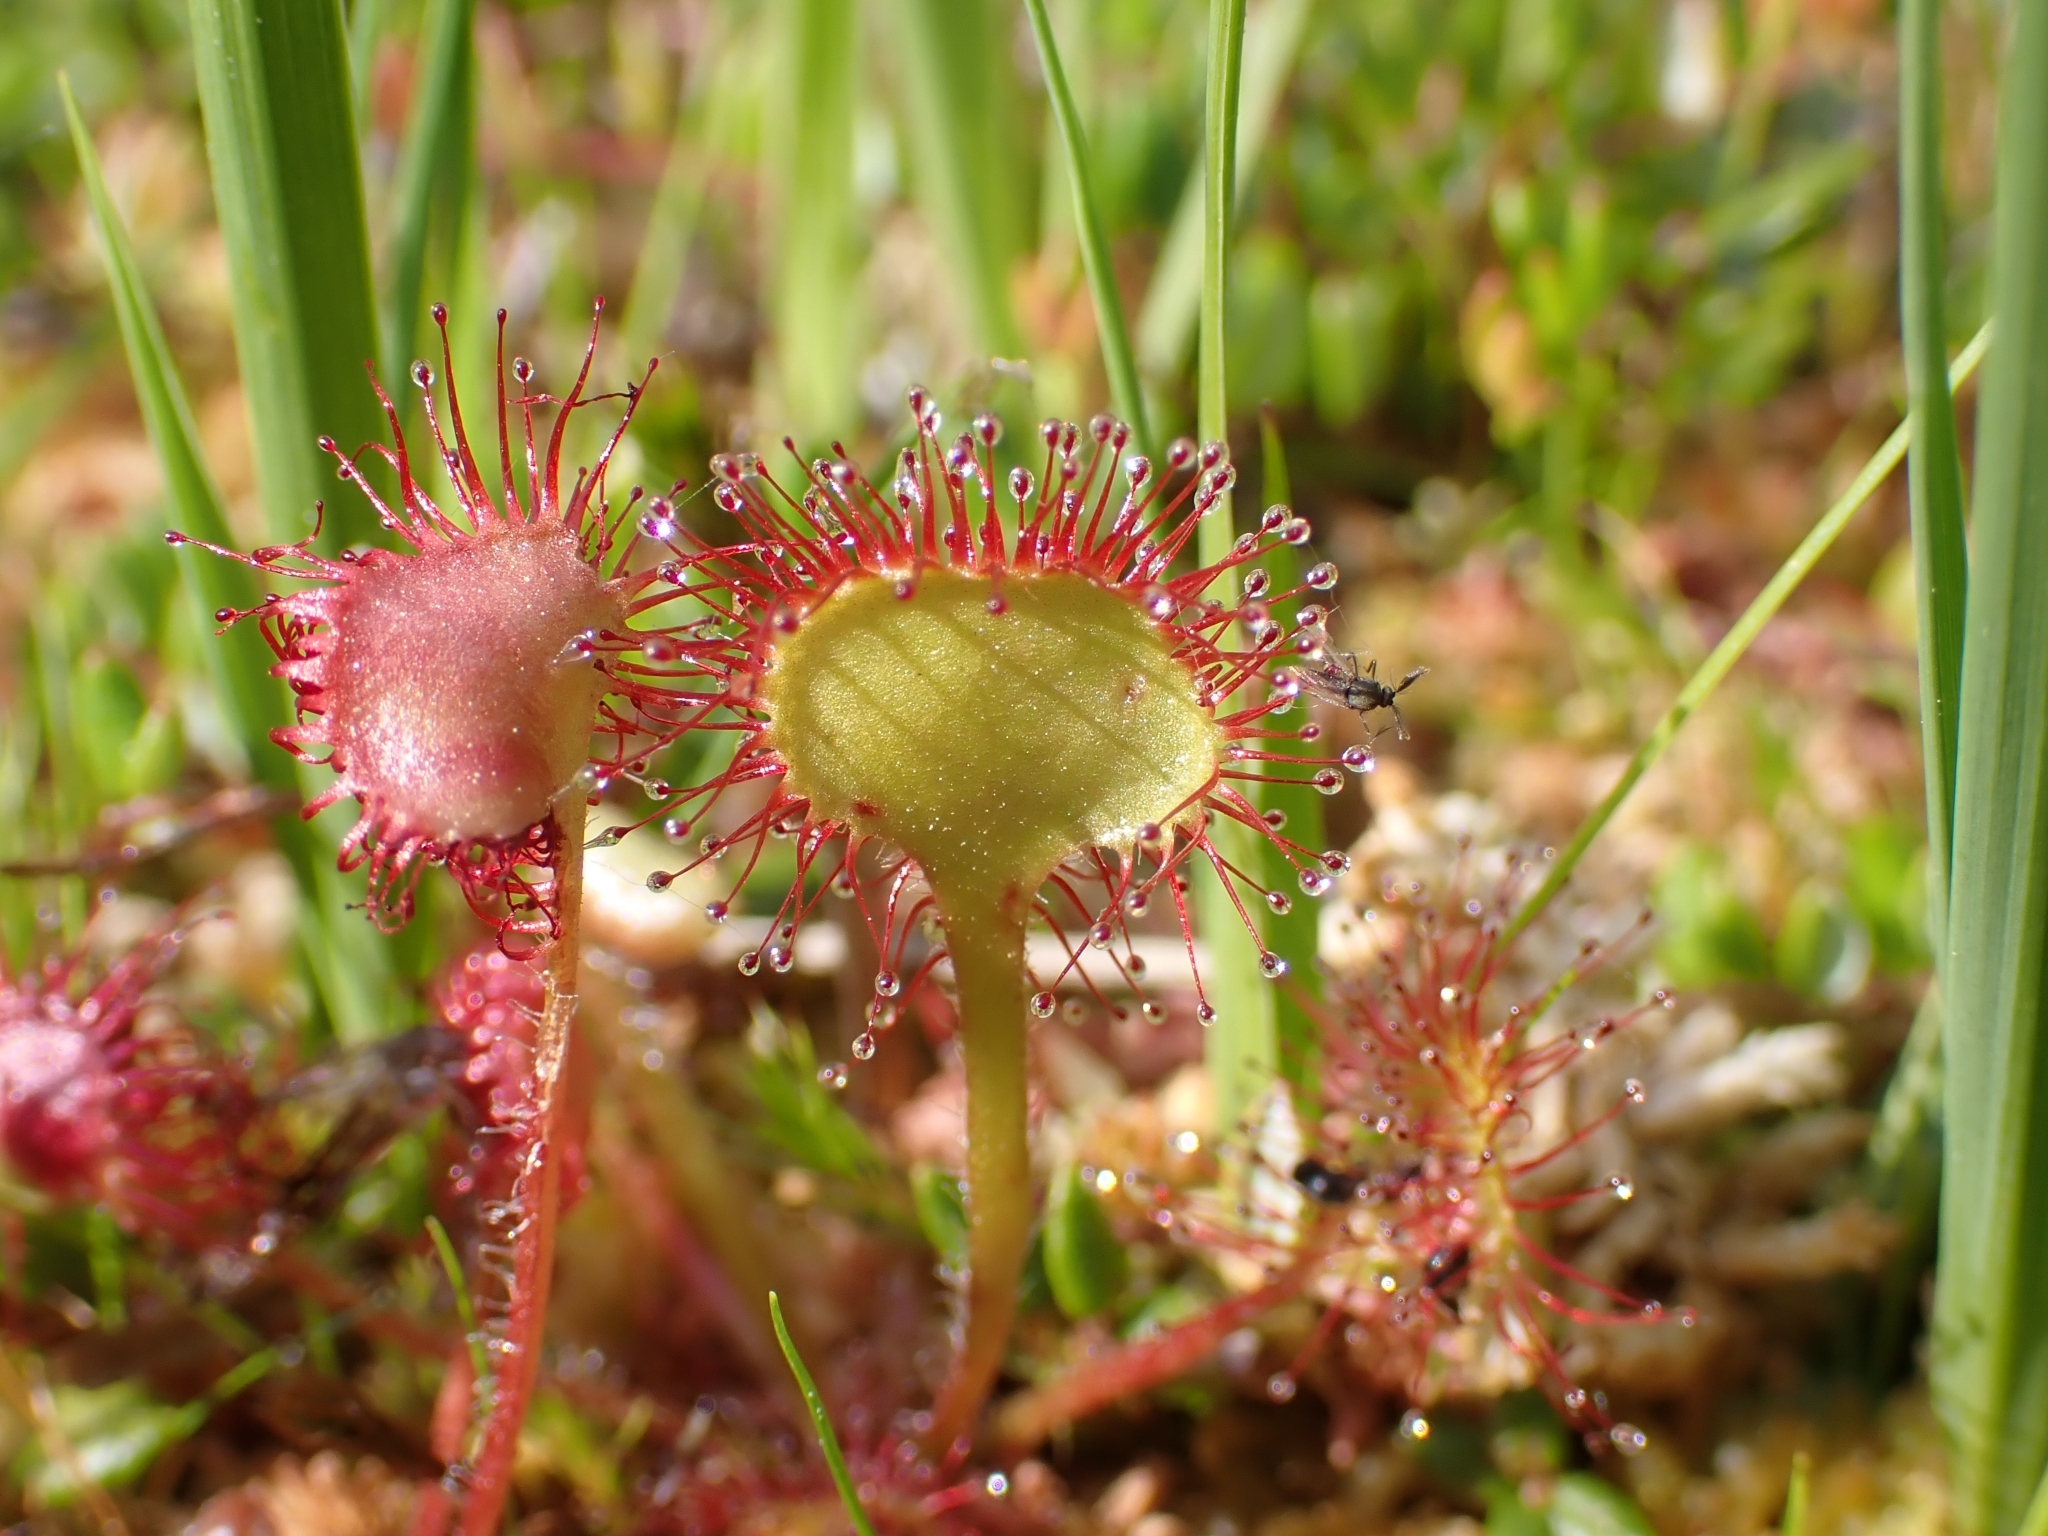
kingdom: Plantae
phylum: Tracheophyta
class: Magnoliopsida
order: Caryophyllales
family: Droseraceae
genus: Drosera
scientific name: Drosera rotundifolia
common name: Round-leaved sundew
